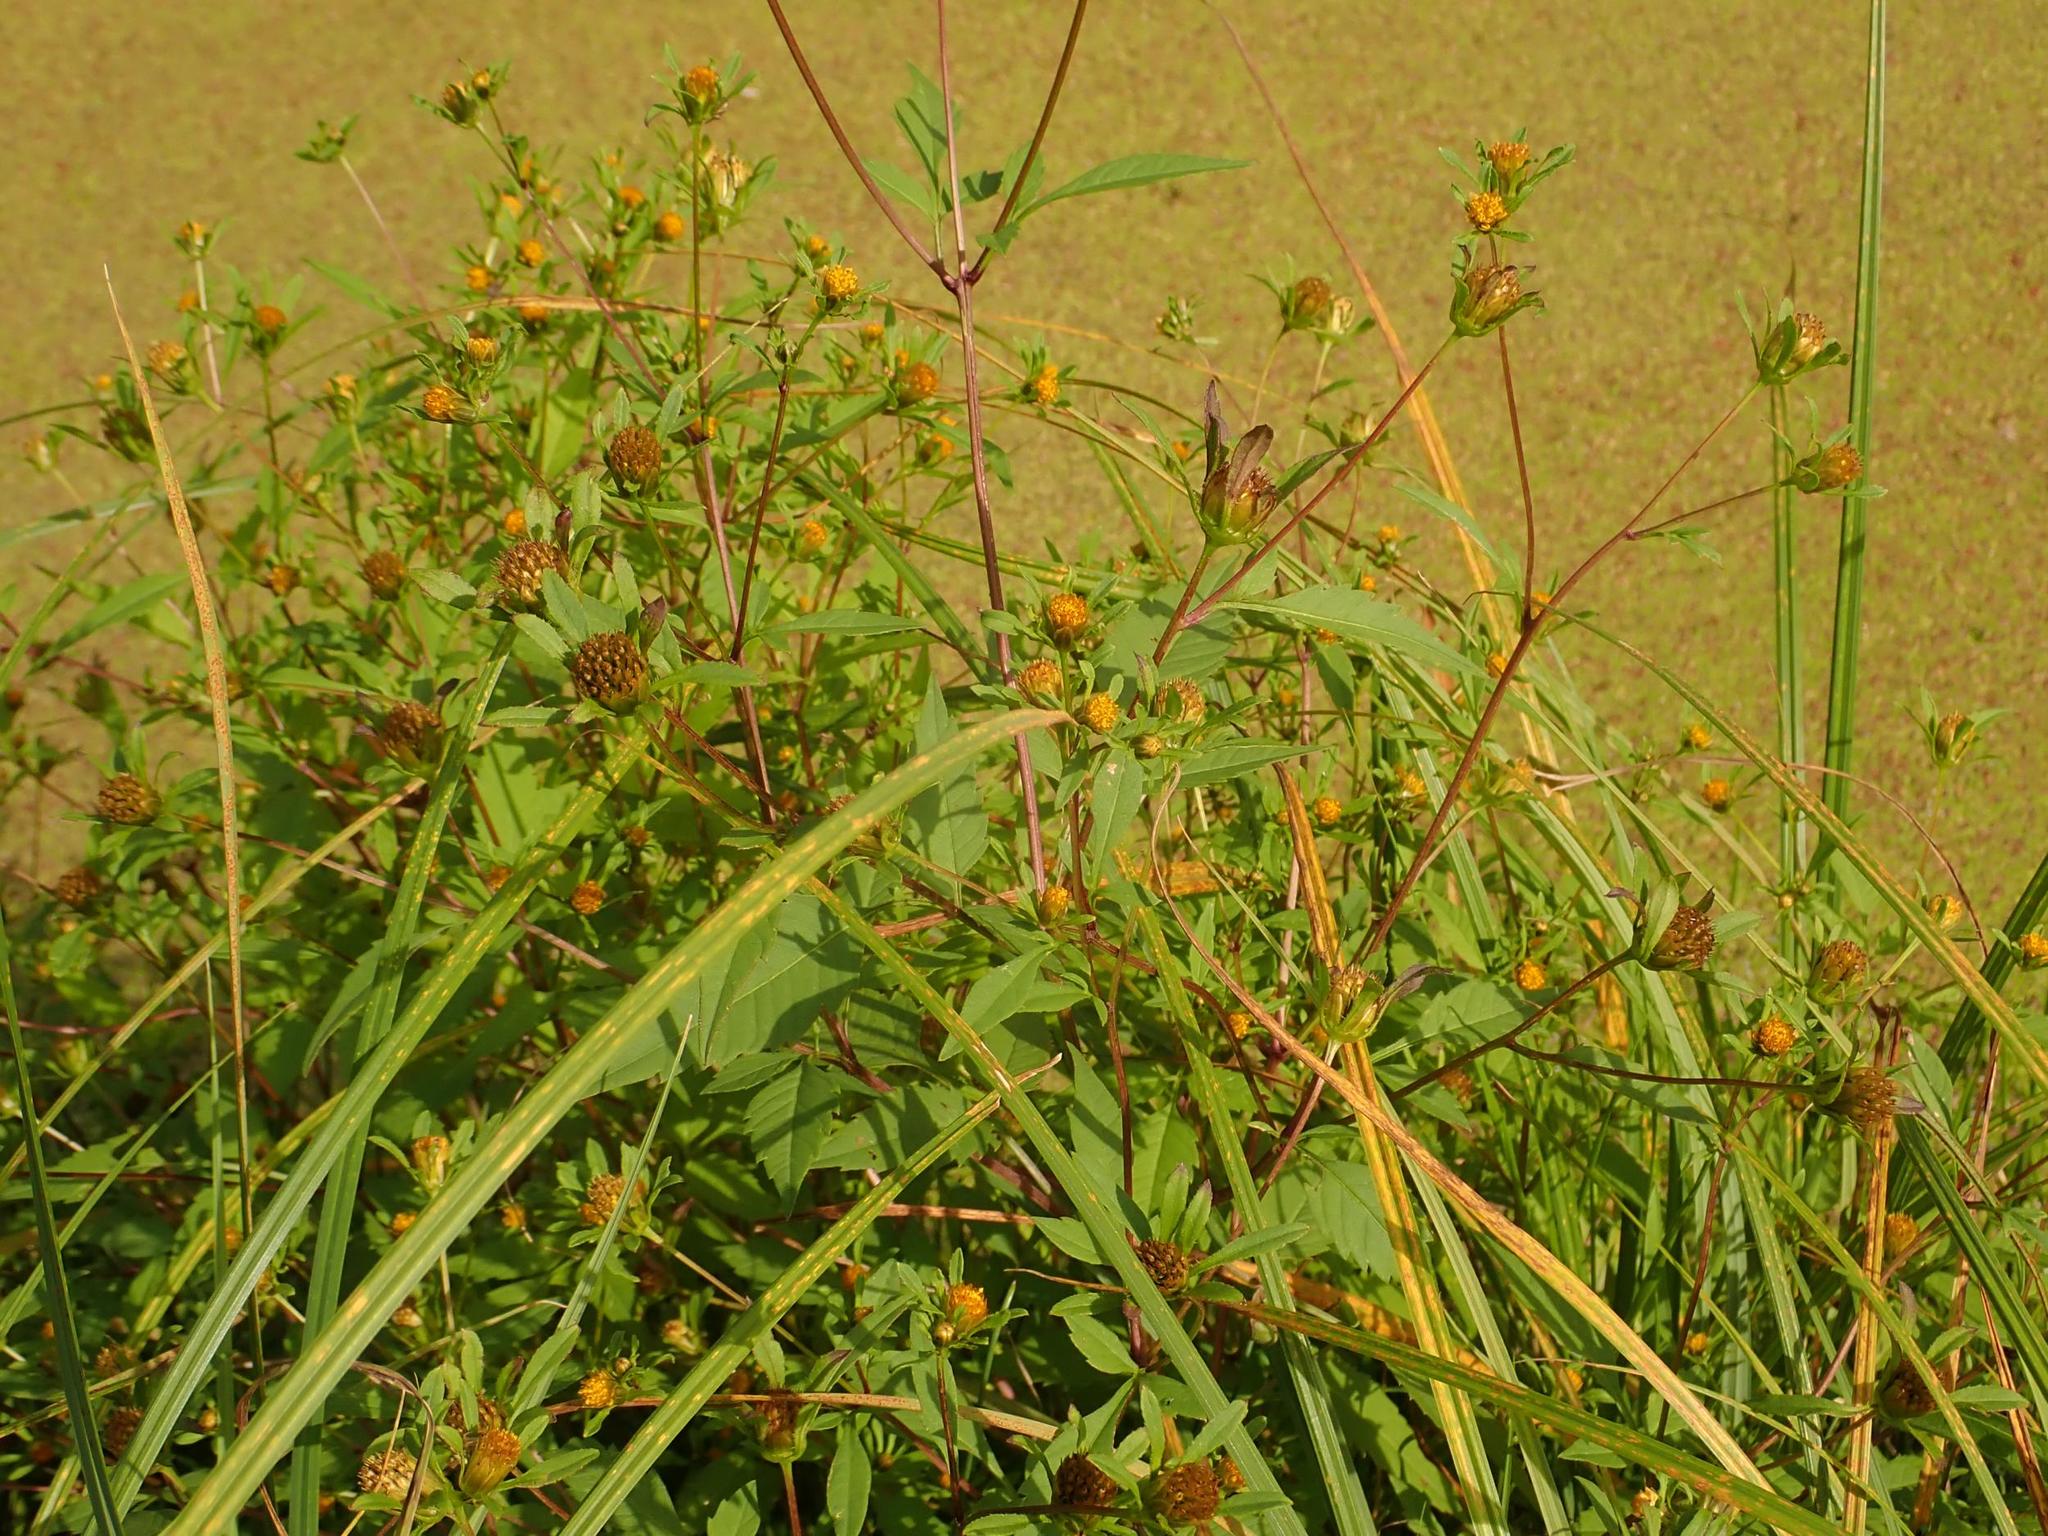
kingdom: Plantae
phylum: Tracheophyta
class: Magnoliopsida
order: Asterales
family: Asteraceae
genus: Bidens
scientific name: Bidens frondosa
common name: Beggarticks
